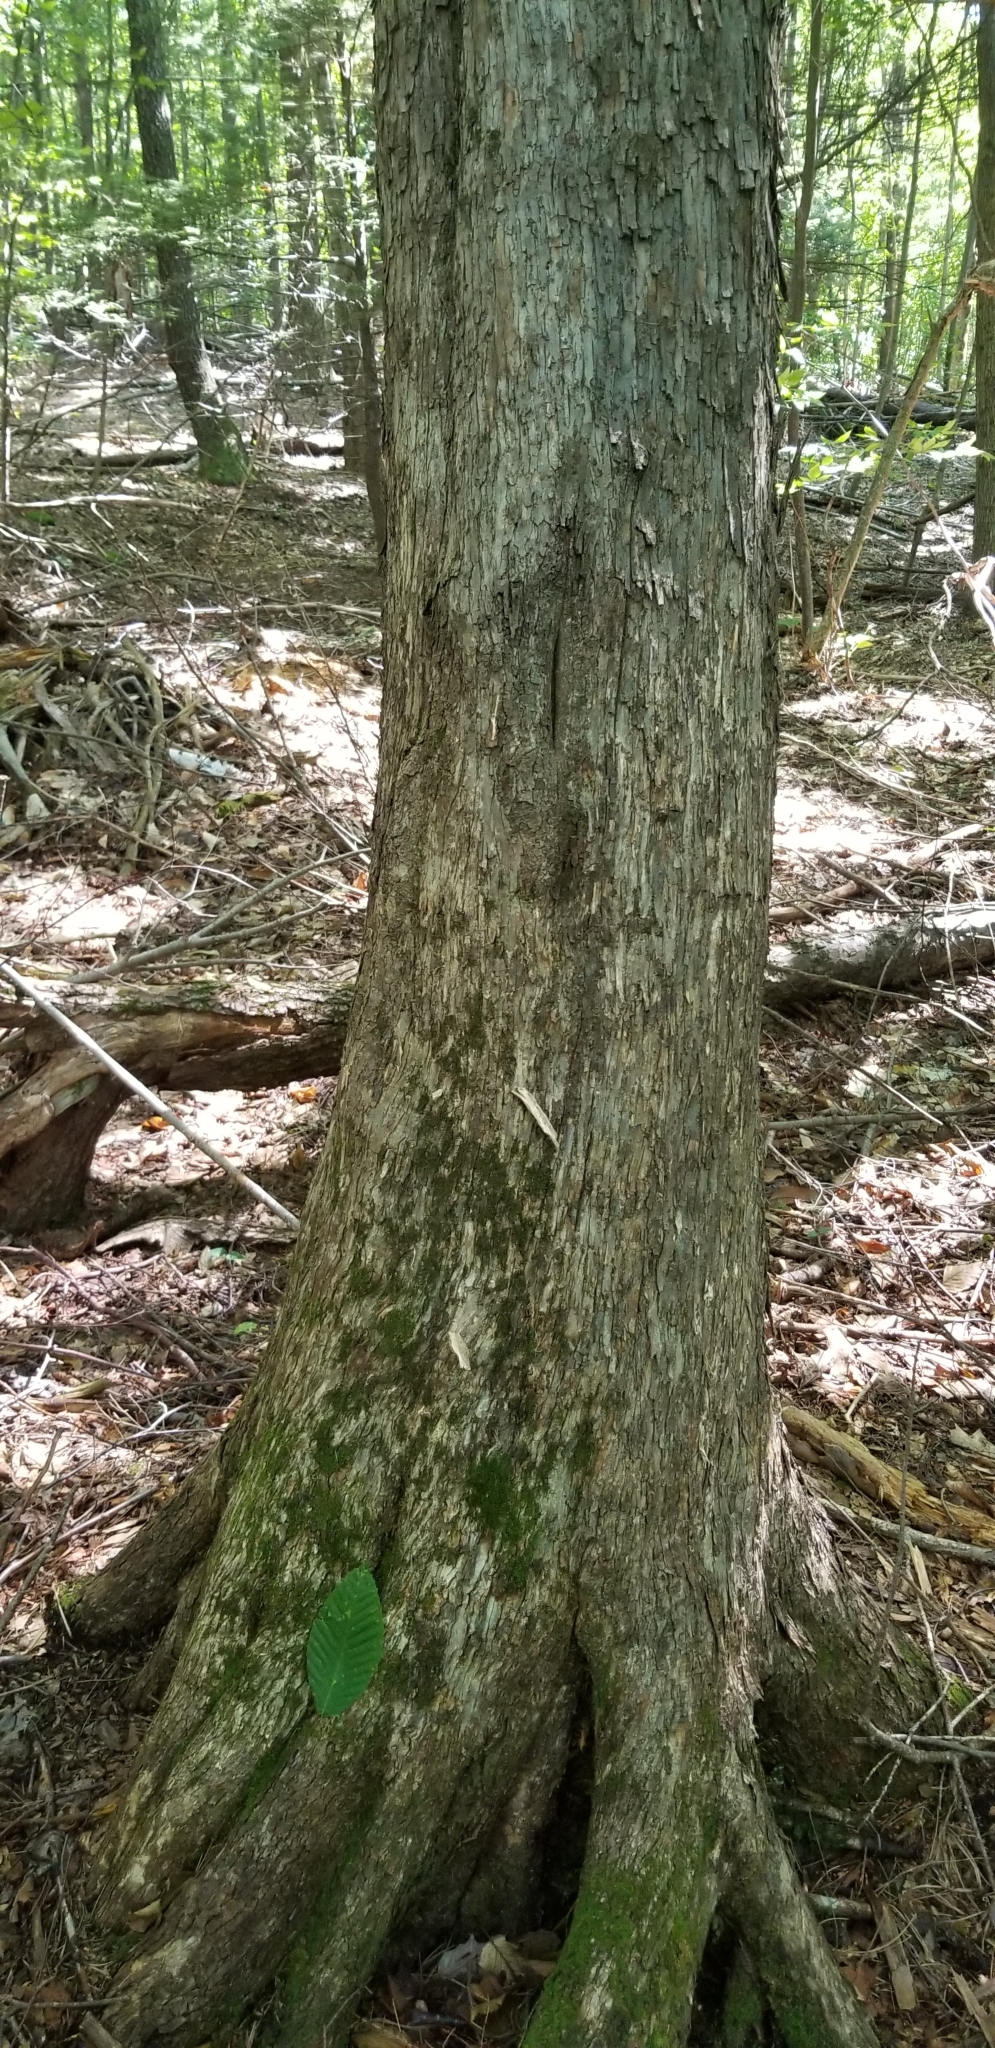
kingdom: Plantae
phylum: Tracheophyta
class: Magnoliopsida
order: Fagales
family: Betulaceae
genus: Ostrya
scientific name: Ostrya virginiana
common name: Ironwood
